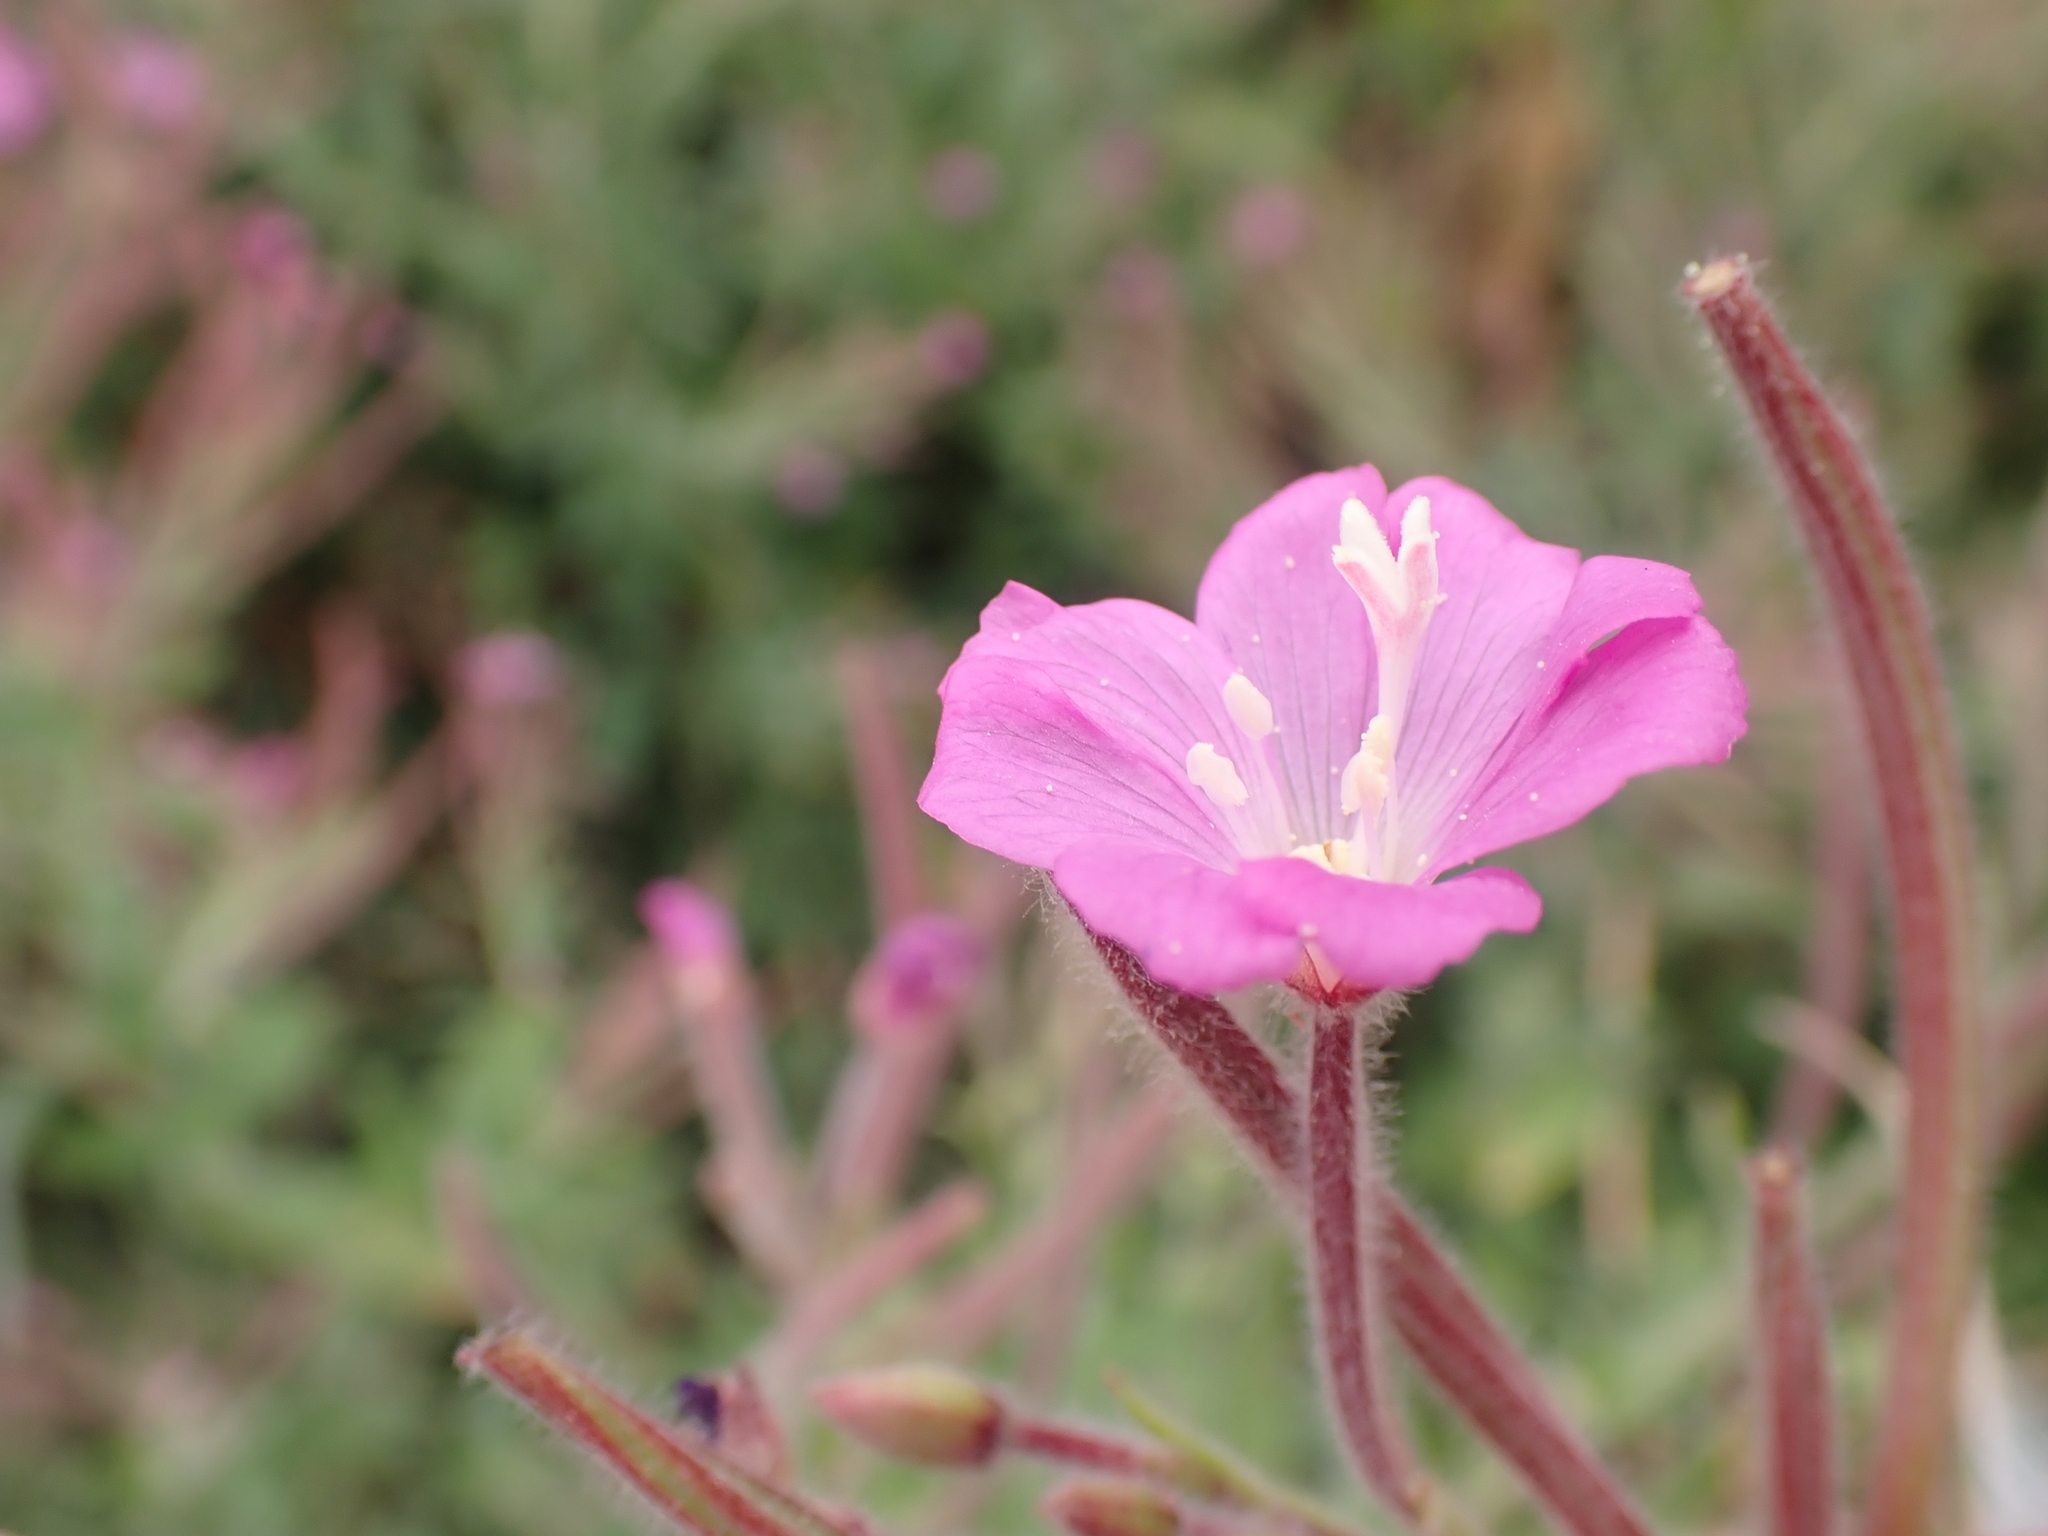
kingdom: Plantae
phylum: Tracheophyta
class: Magnoliopsida
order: Myrtales
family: Onagraceae
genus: Epilobium
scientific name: Epilobium hirsutum
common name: Great willowherb
